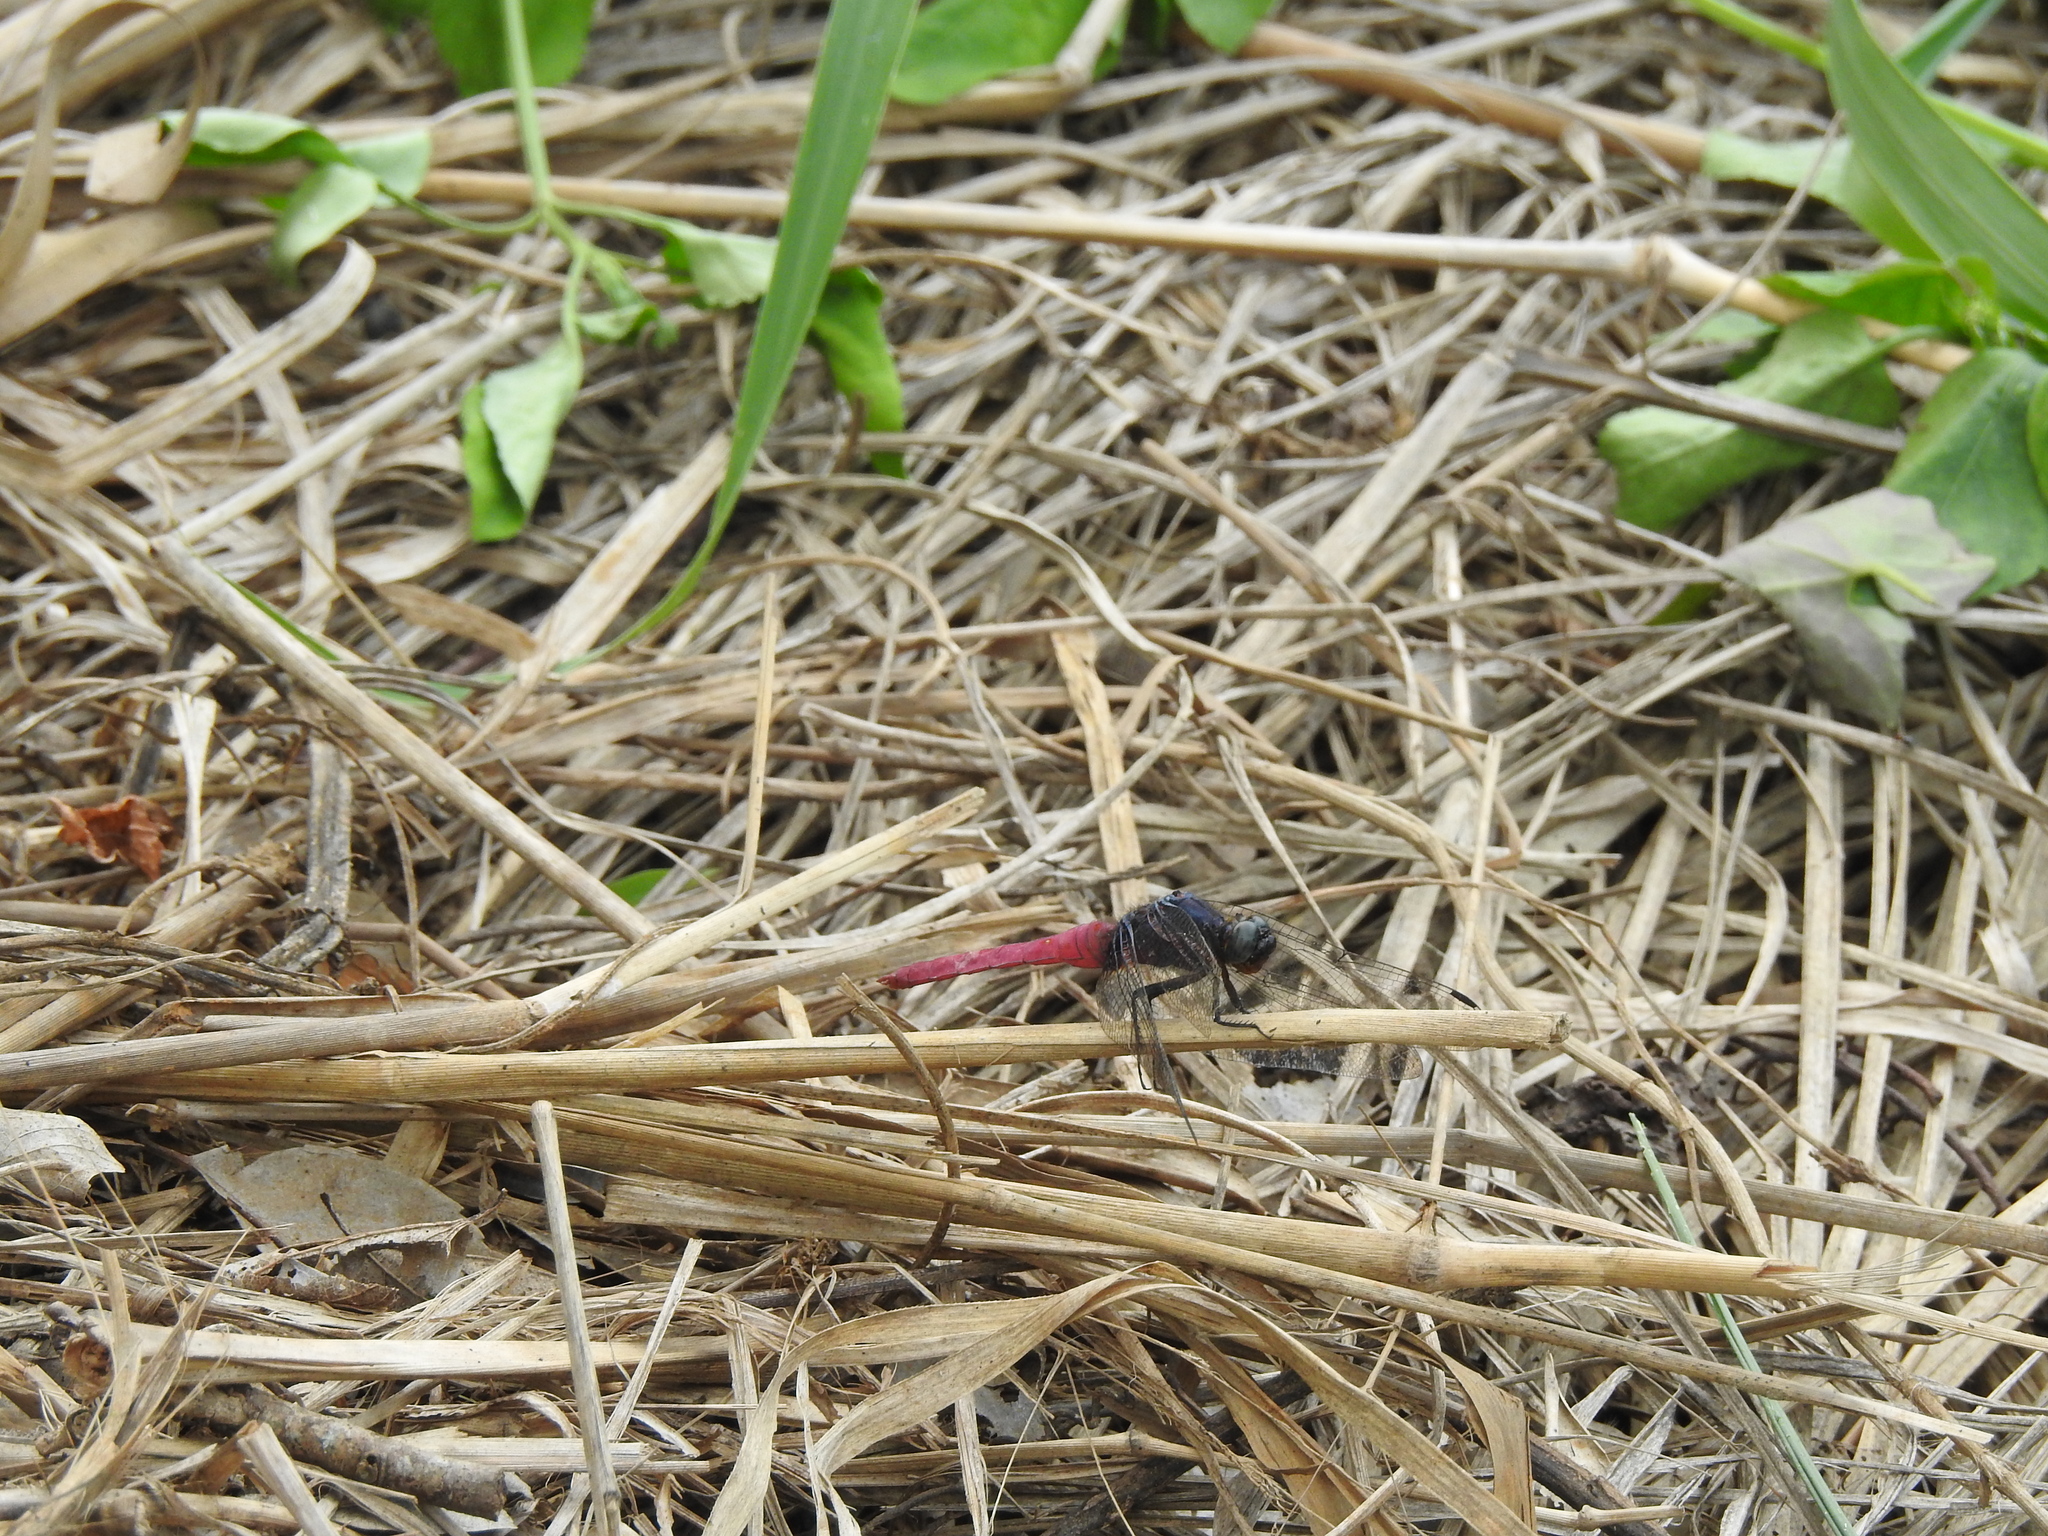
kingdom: Animalia
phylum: Arthropoda
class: Insecta
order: Odonata
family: Libellulidae
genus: Orthetrum
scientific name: Orthetrum pruinosum
